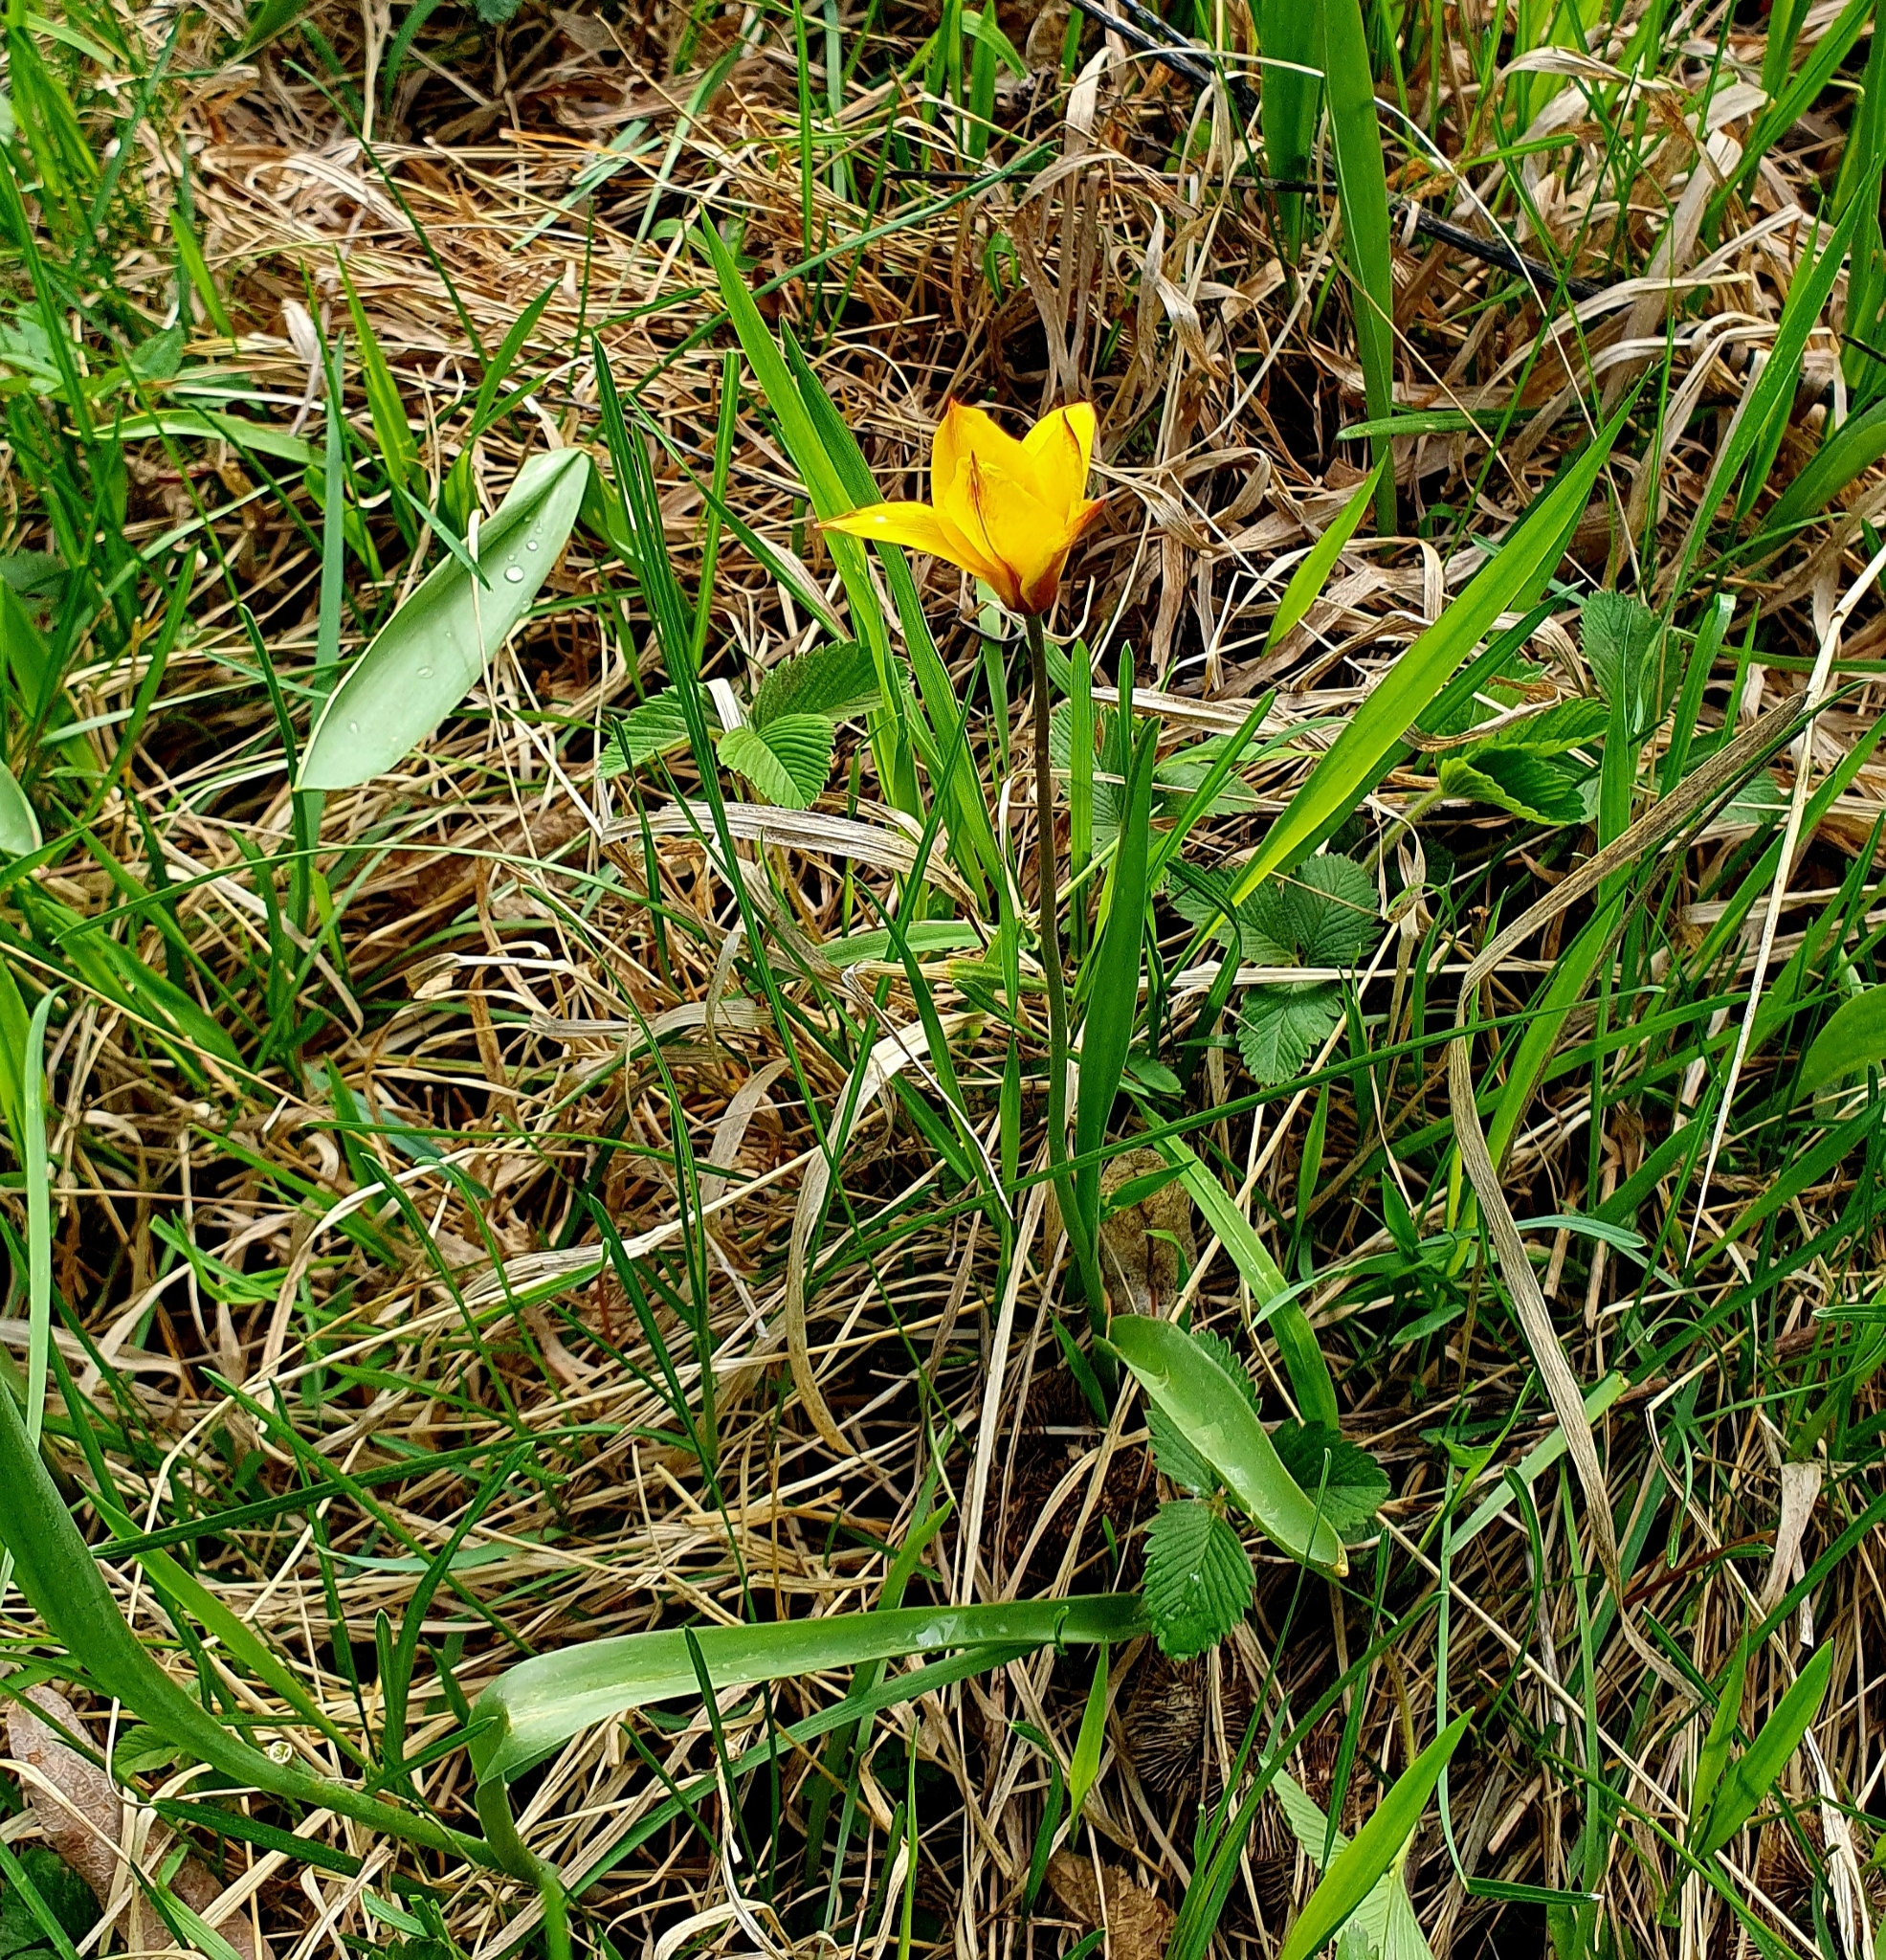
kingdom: Plantae
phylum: Tracheophyta
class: Liliopsida
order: Liliales
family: Liliaceae
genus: Tulipa
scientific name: Tulipa sylvestris
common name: Wild tulip
